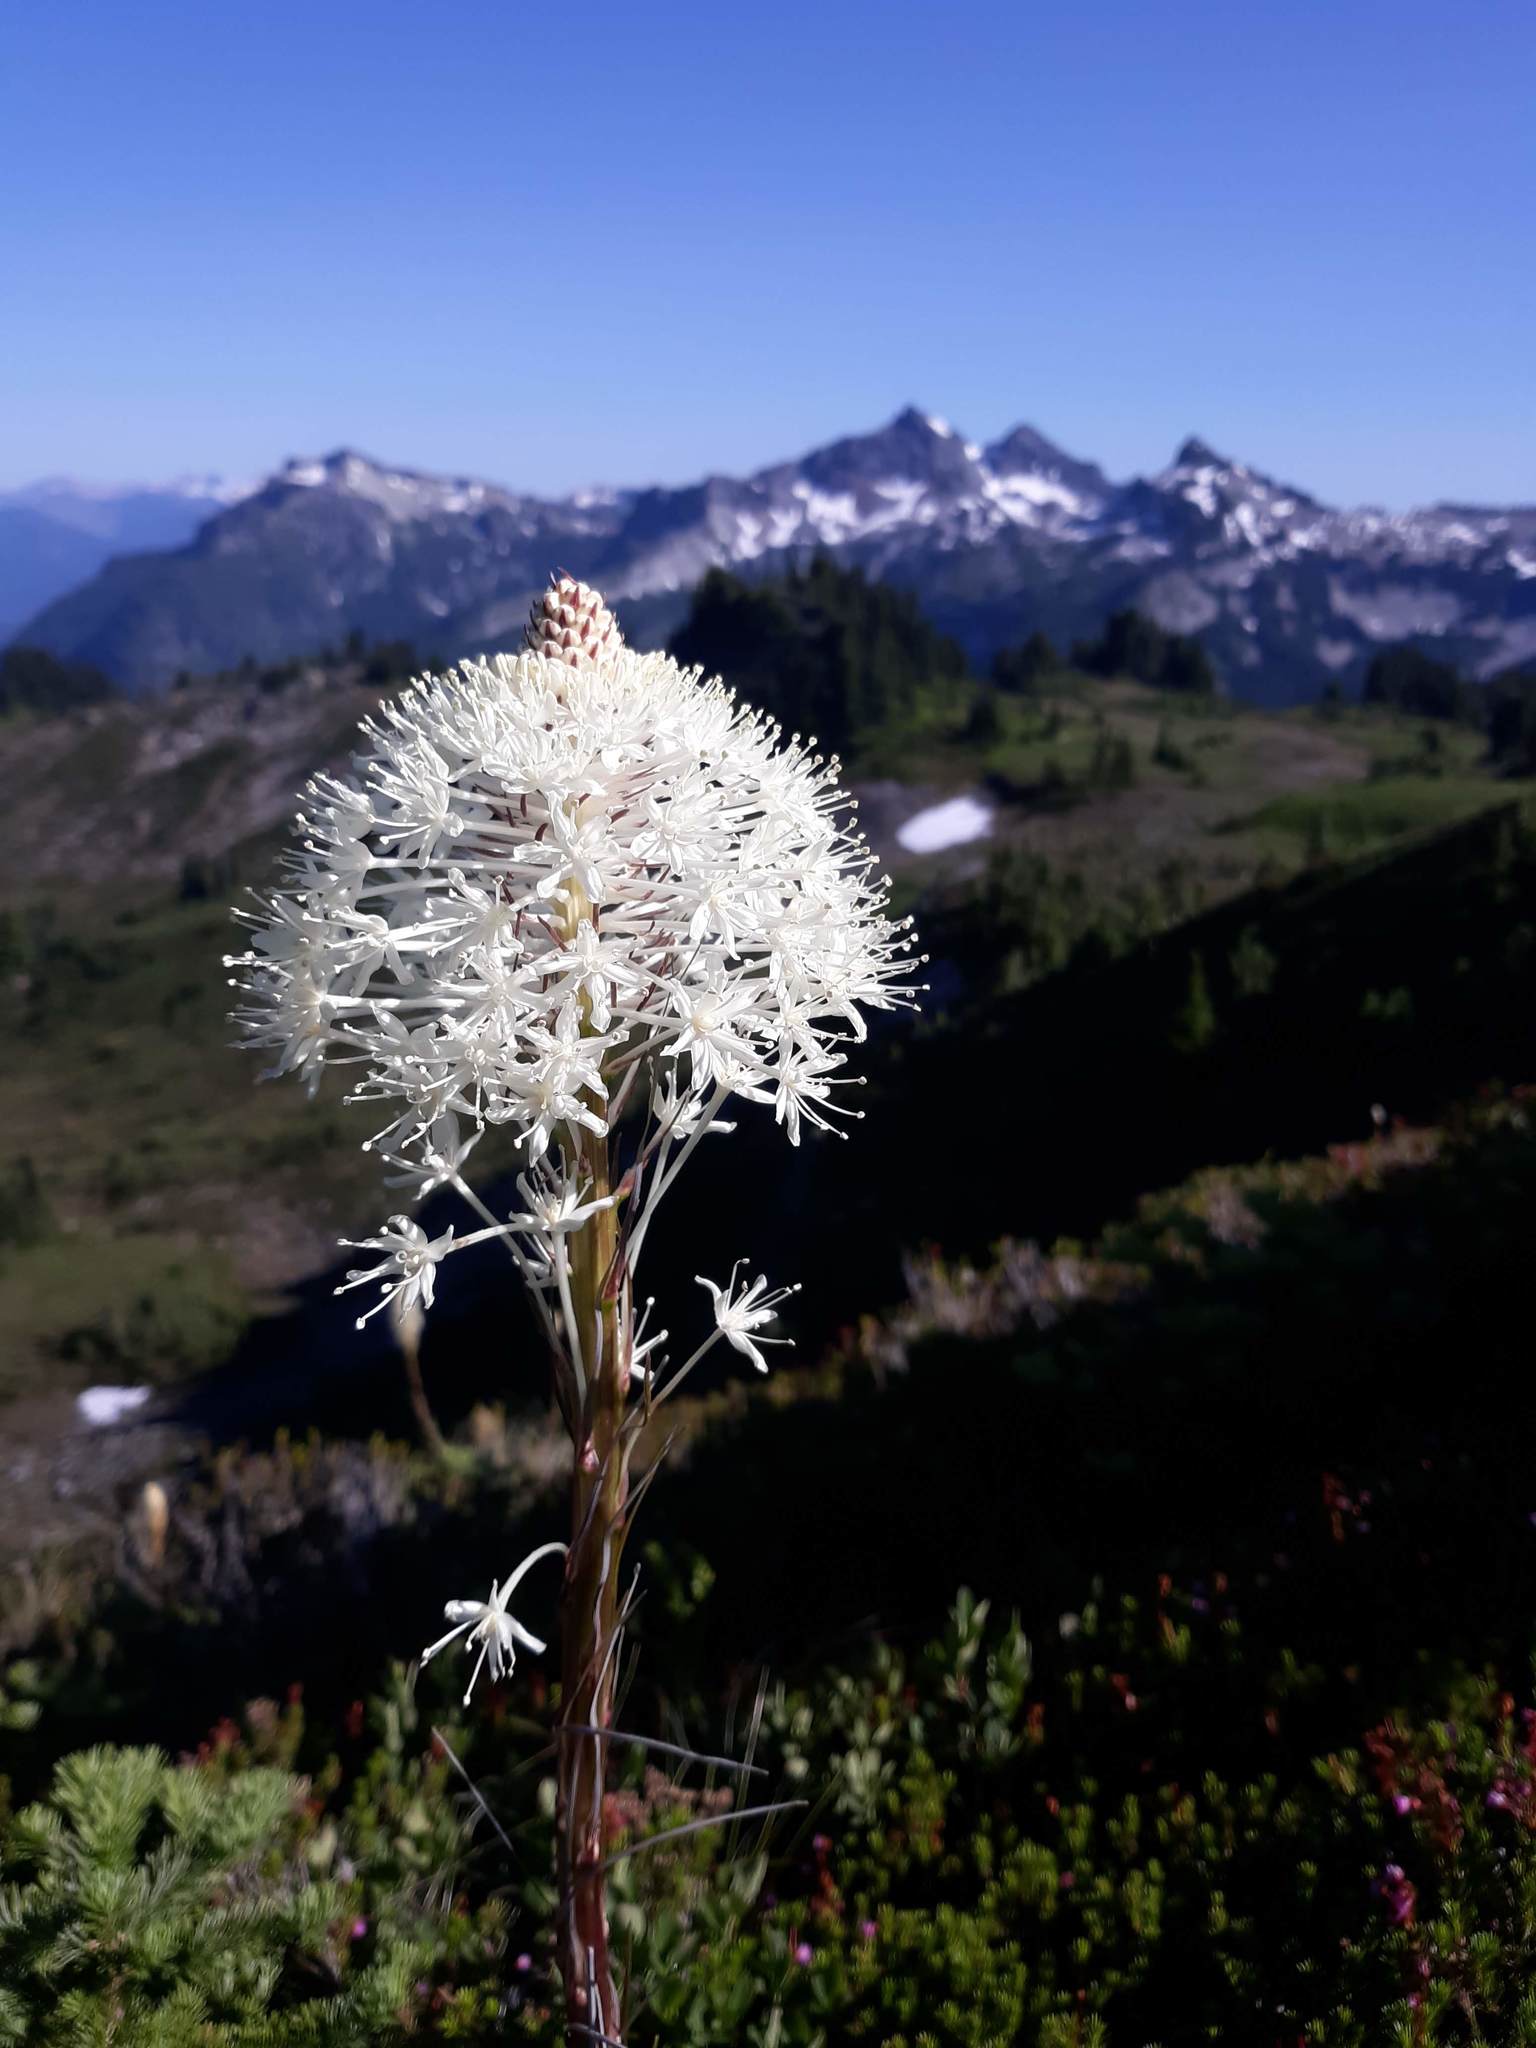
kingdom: Plantae
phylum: Tracheophyta
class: Liliopsida
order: Liliales
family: Melanthiaceae
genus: Xerophyllum
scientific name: Xerophyllum tenax
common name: Bear-grass
